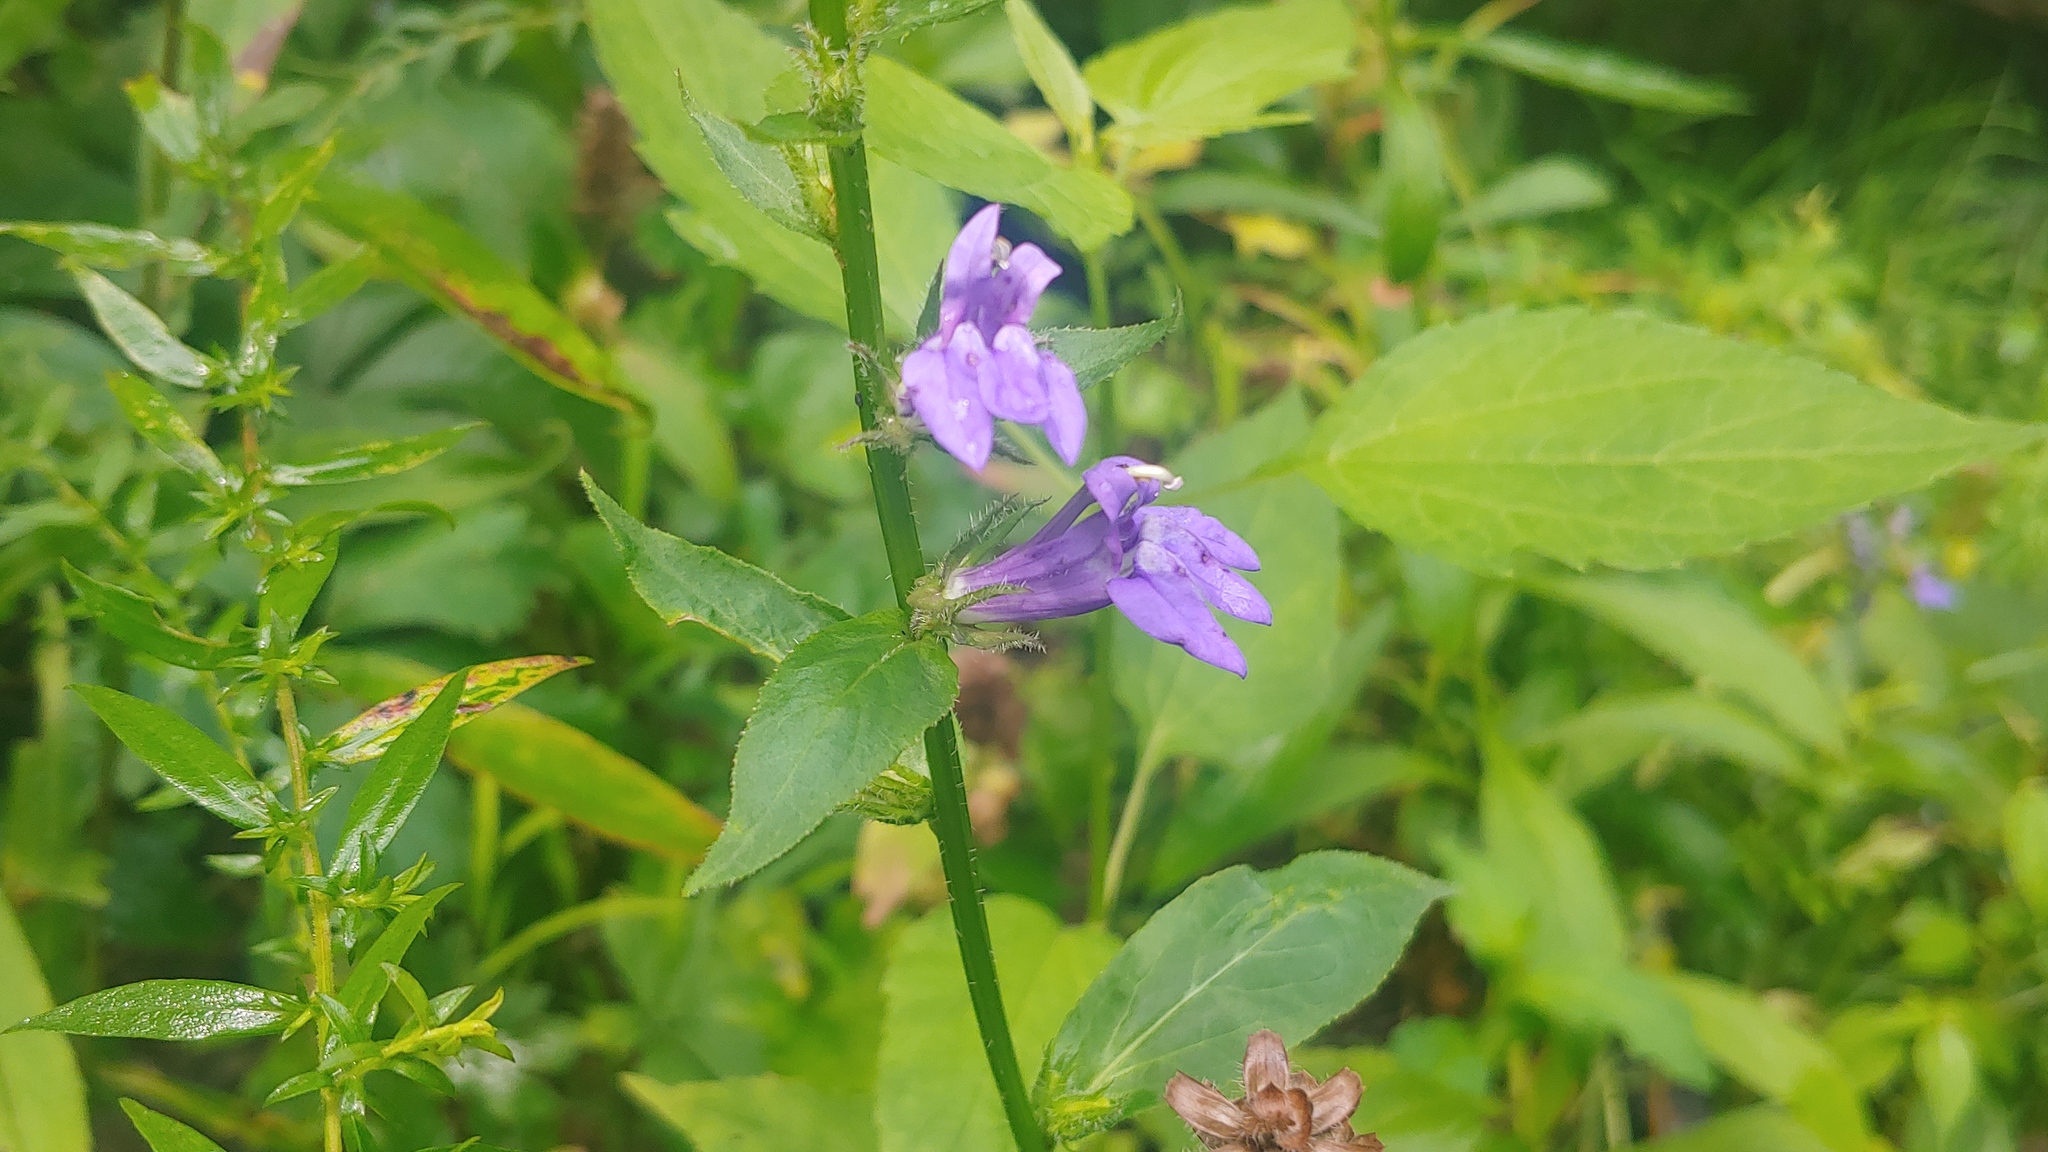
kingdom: Plantae
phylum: Tracheophyta
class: Magnoliopsida
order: Asterales
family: Campanulaceae
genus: Lobelia
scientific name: Lobelia siphilitica
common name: Great lobelia
